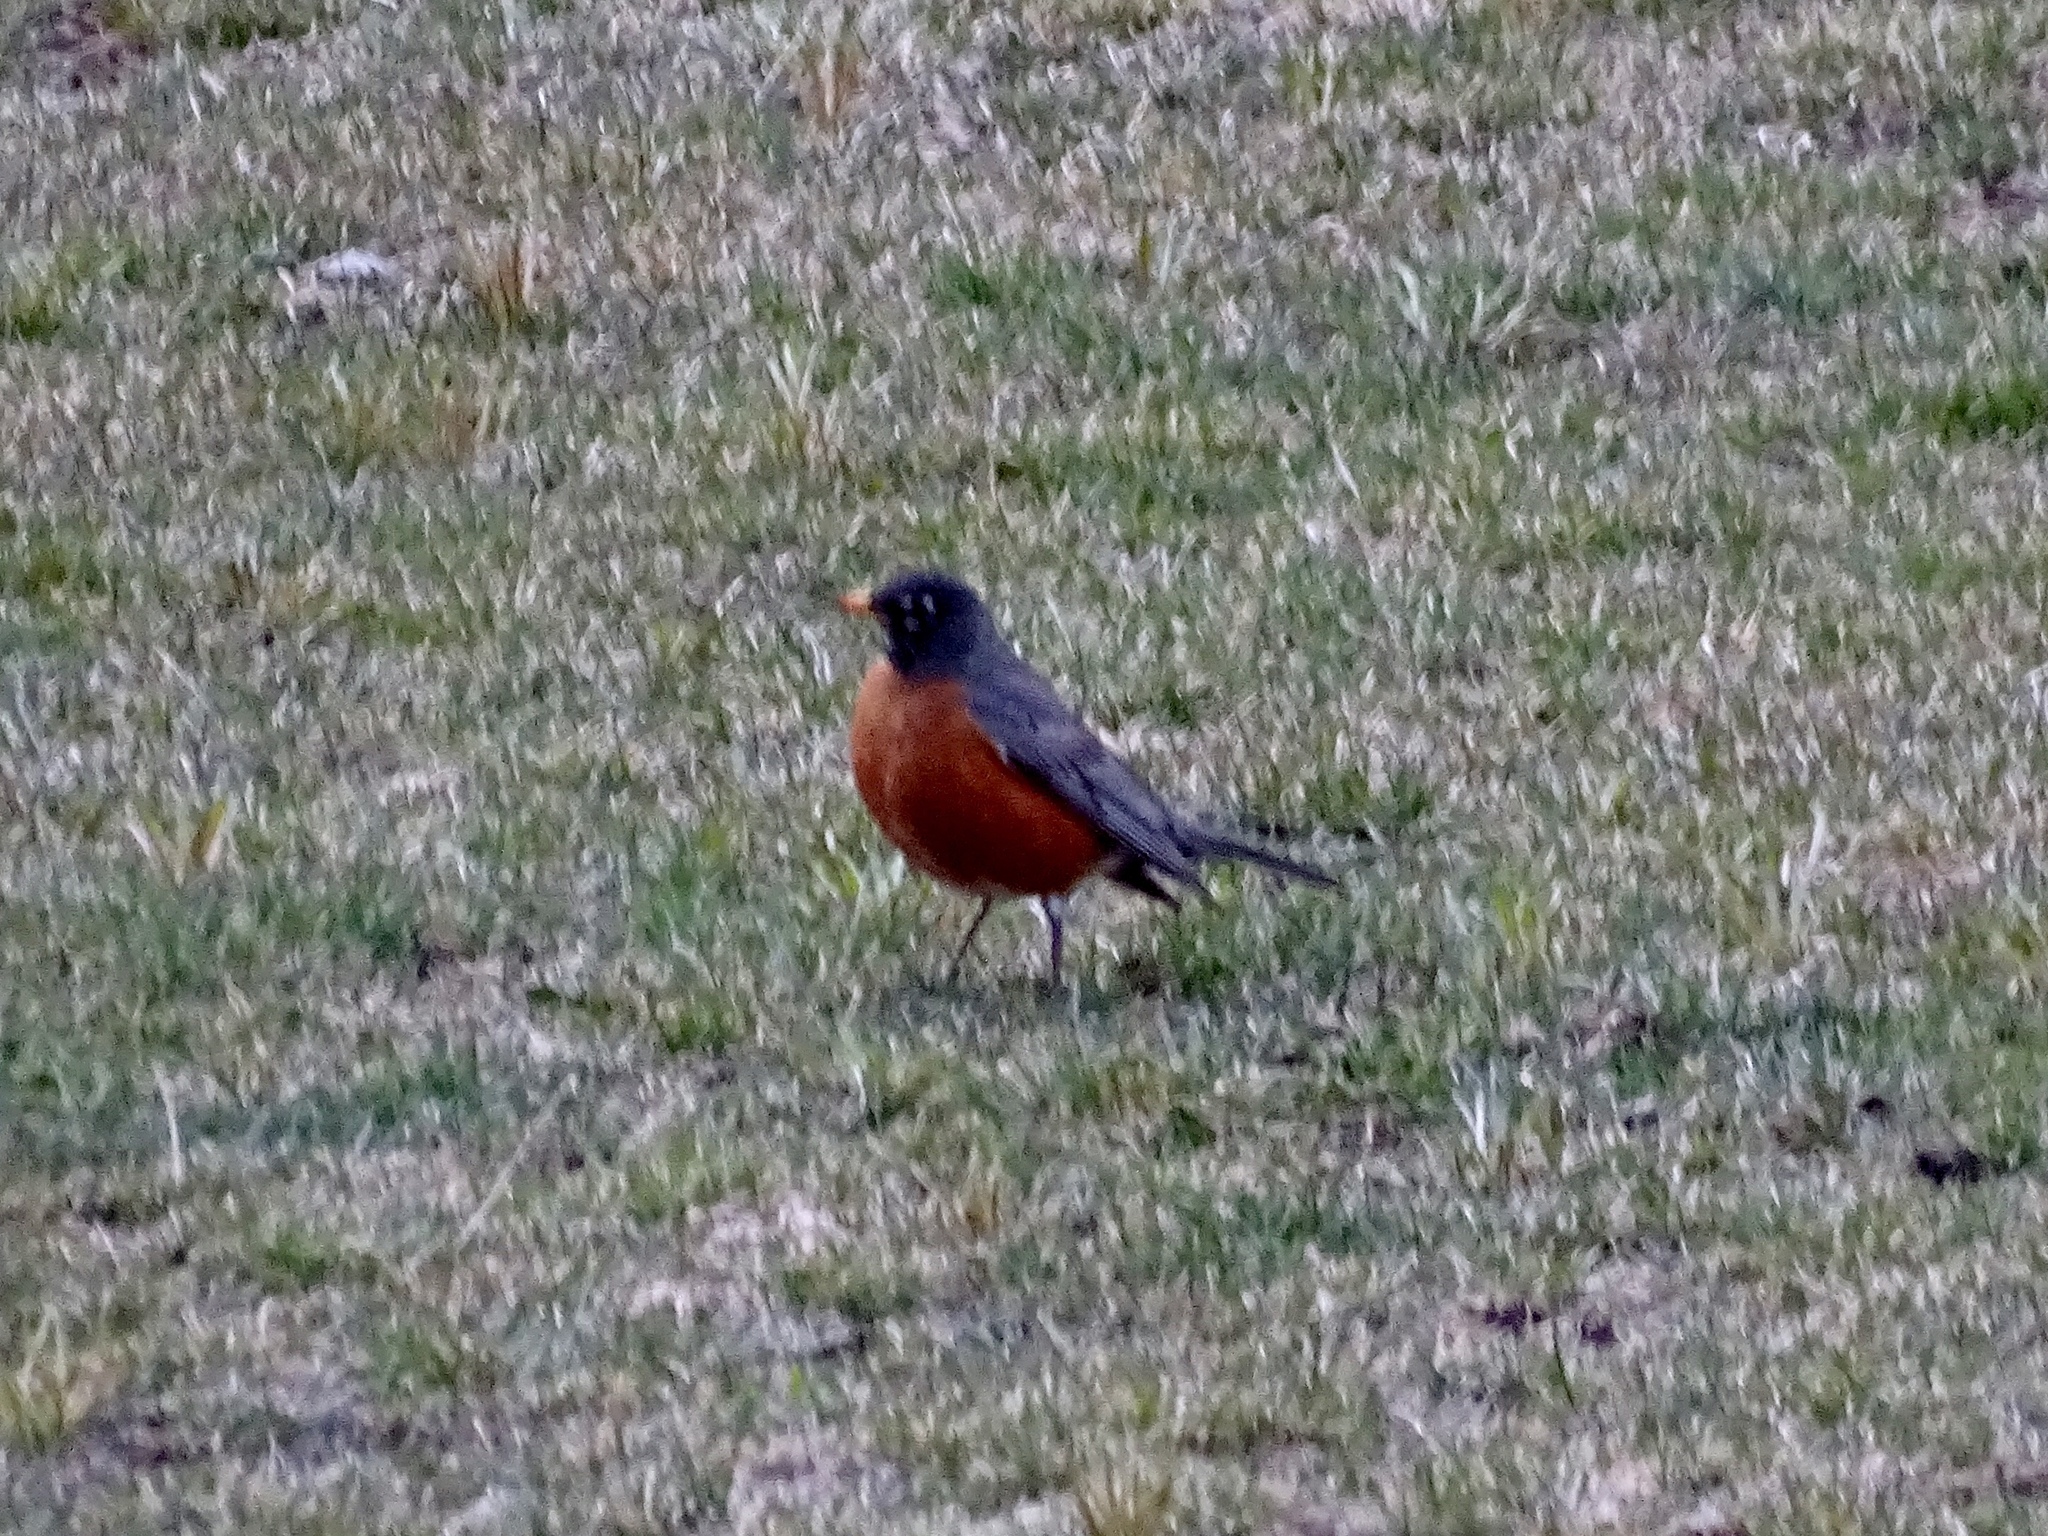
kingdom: Animalia
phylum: Chordata
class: Aves
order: Passeriformes
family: Turdidae
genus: Turdus
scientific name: Turdus migratorius
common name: American robin
